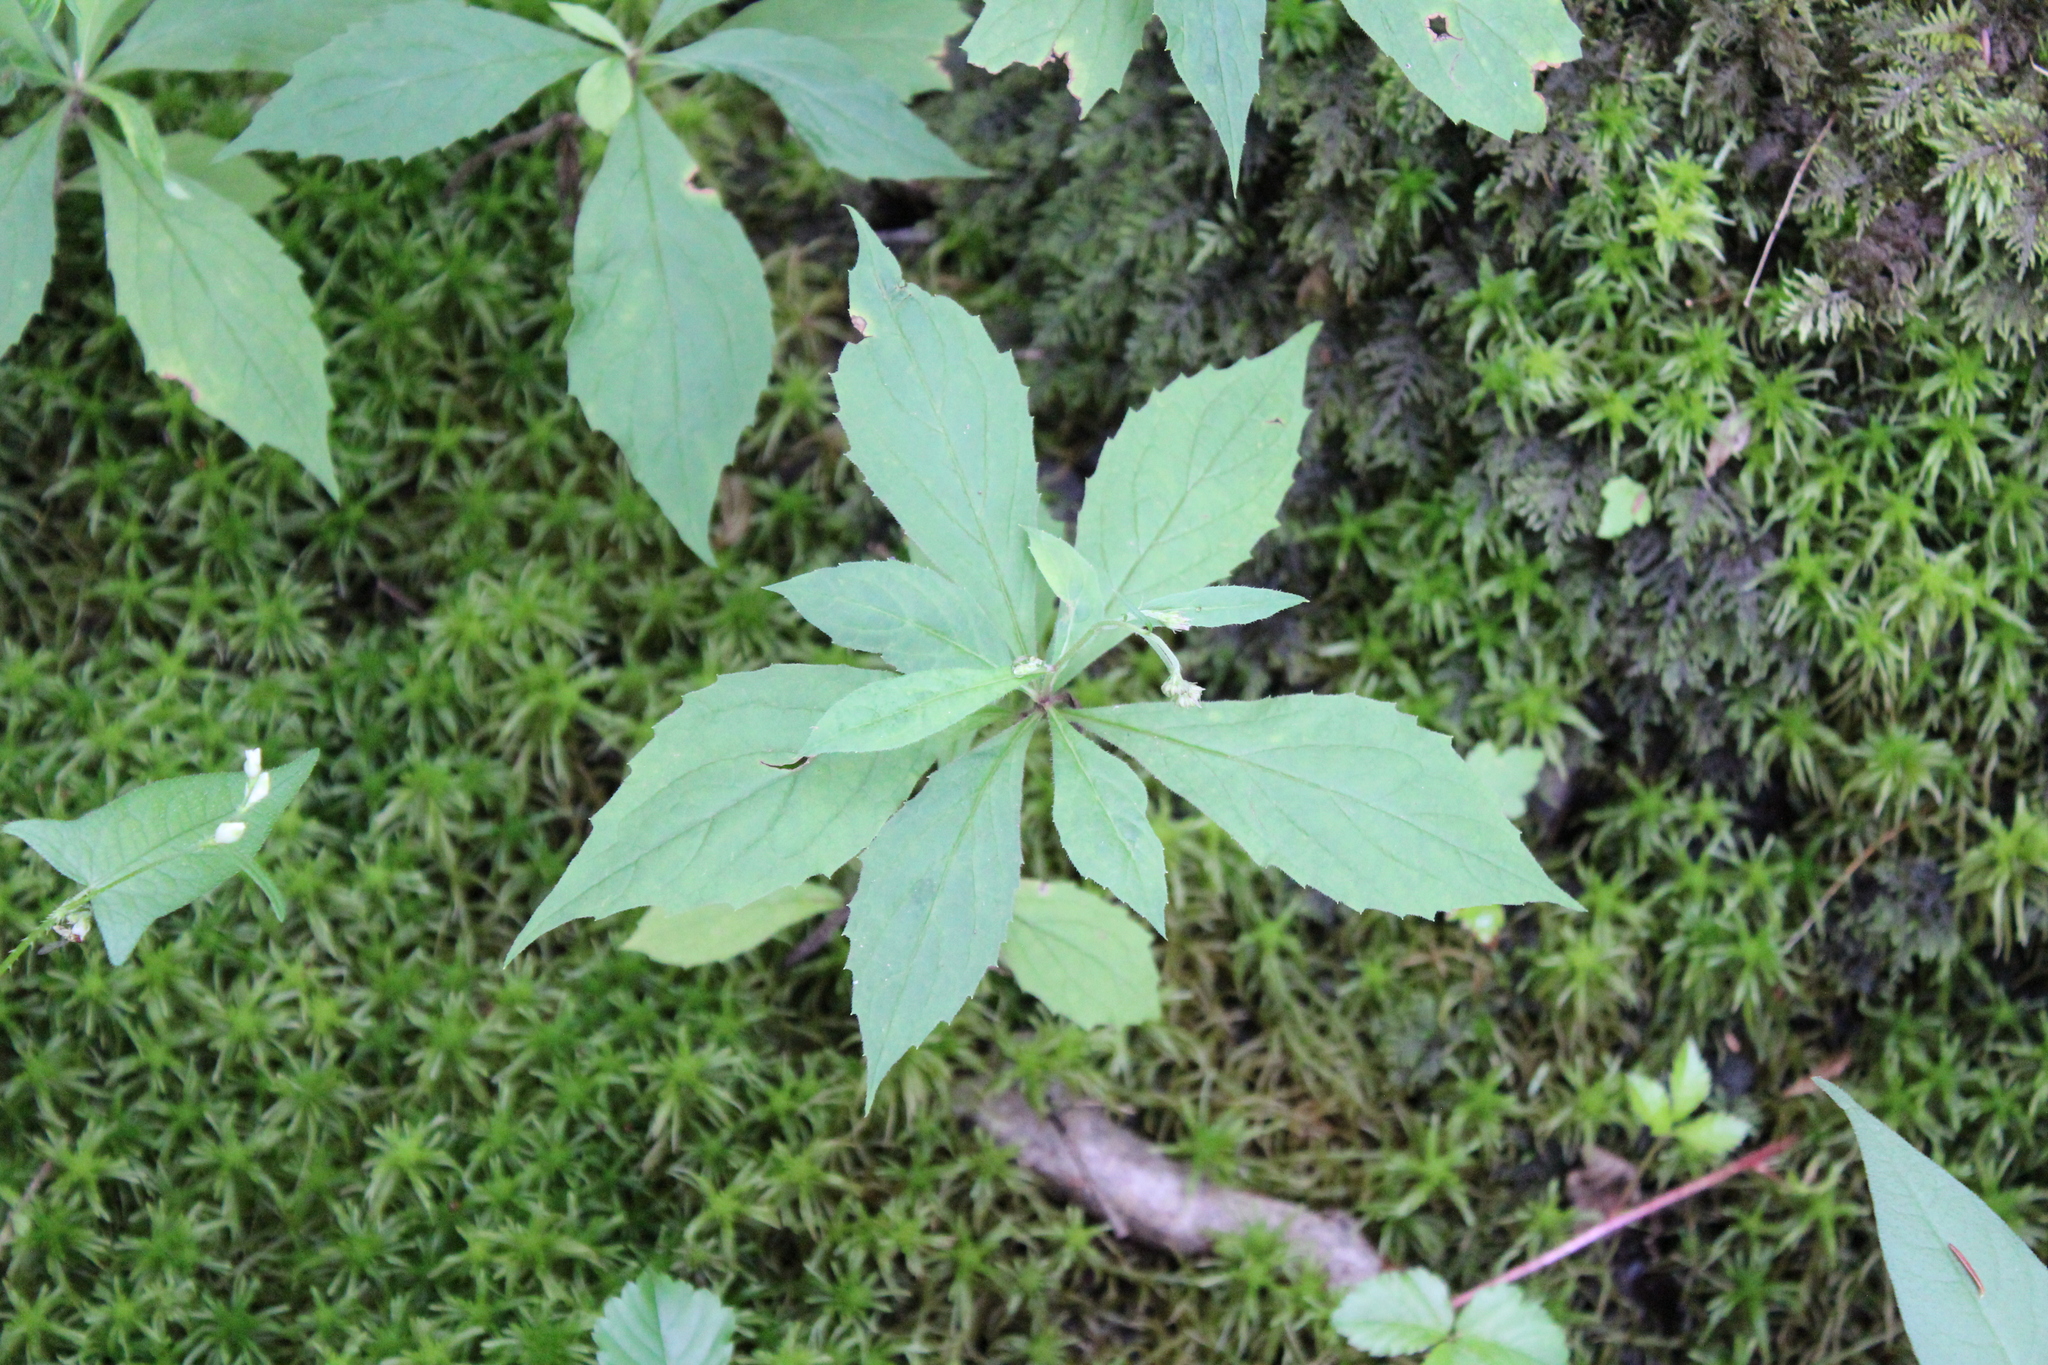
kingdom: Plantae
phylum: Tracheophyta
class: Magnoliopsida
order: Asterales
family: Asteraceae
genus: Oclemena
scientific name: Oclemena acuminata
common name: Mountain aster
